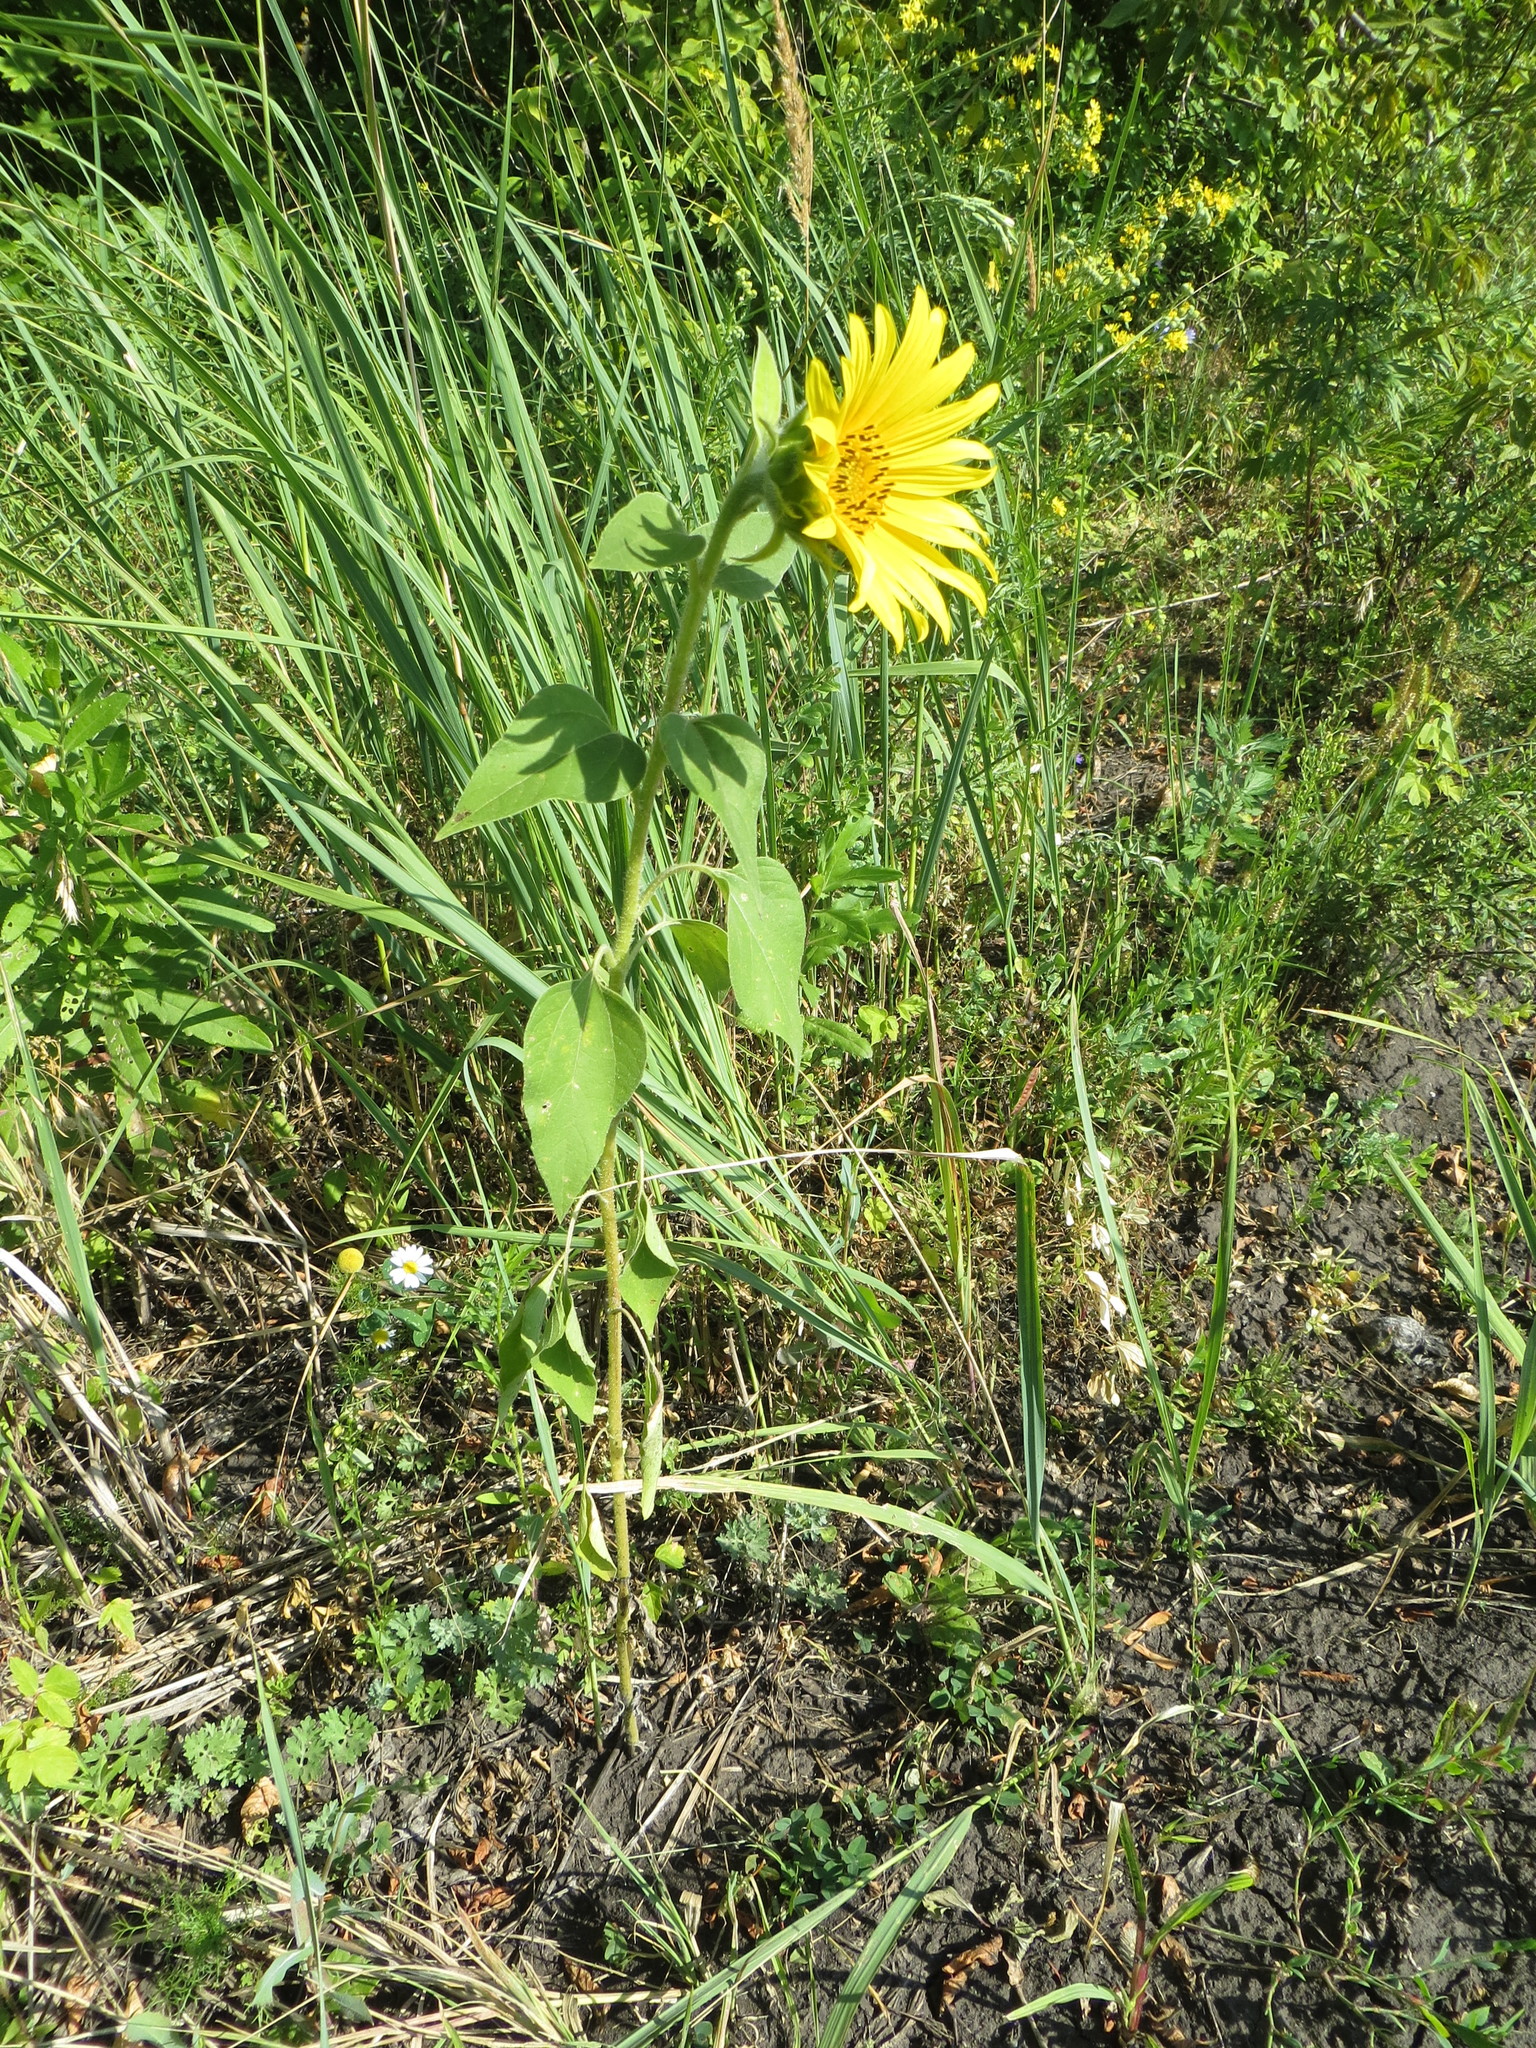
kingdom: Plantae
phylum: Tracheophyta
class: Magnoliopsida
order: Asterales
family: Asteraceae
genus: Helianthus
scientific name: Helianthus annuus
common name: Sunflower
